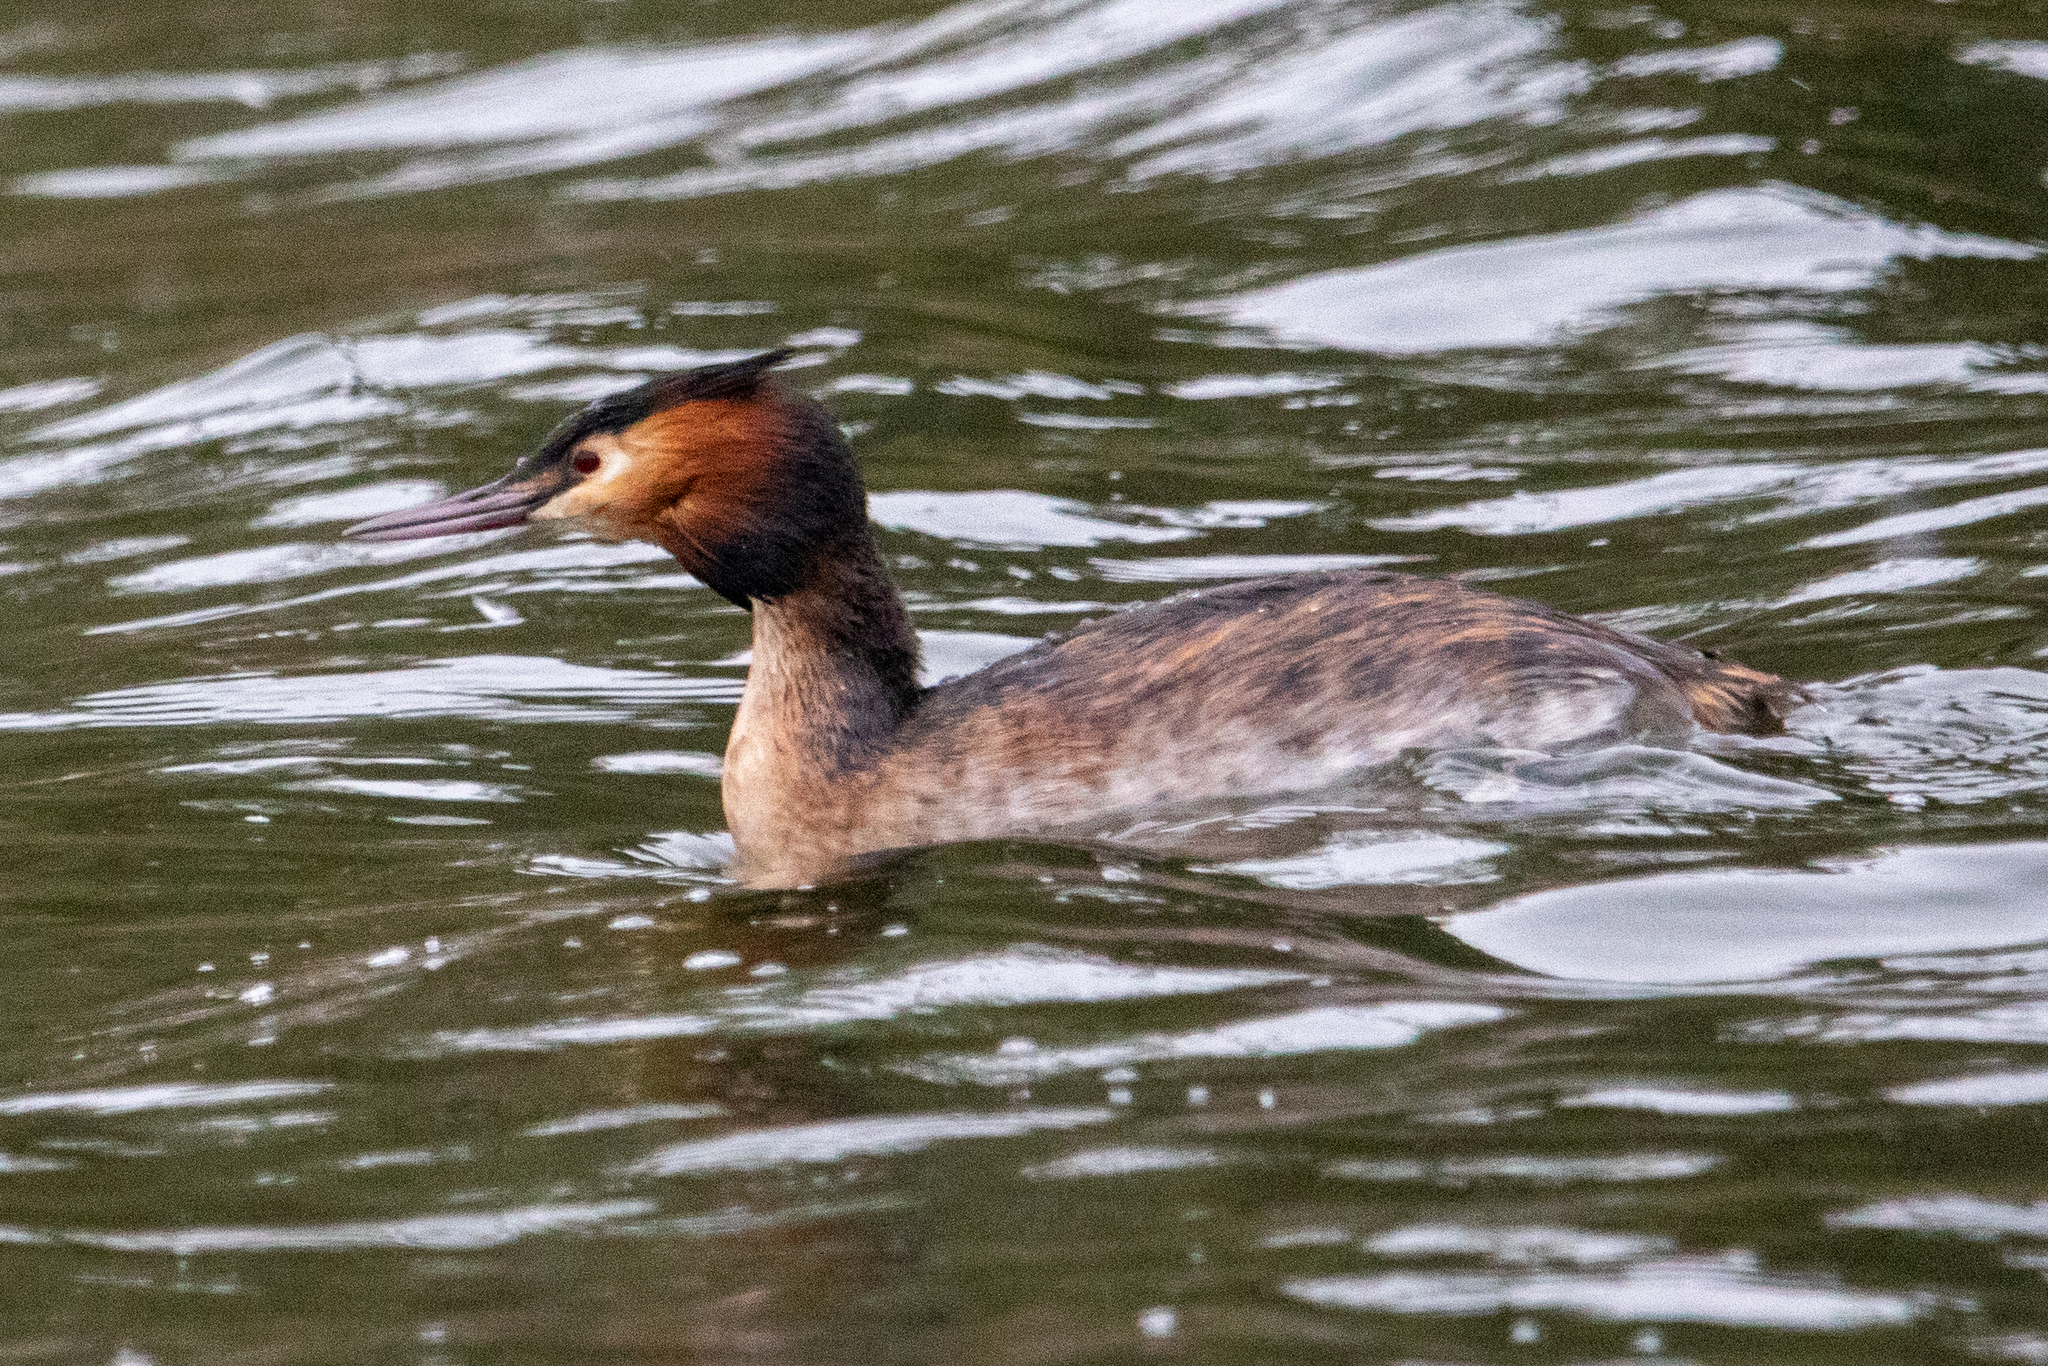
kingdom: Animalia
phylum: Chordata
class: Aves
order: Podicipediformes
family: Podicipedidae
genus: Podiceps
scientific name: Podiceps cristatus
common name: Great crested grebe
